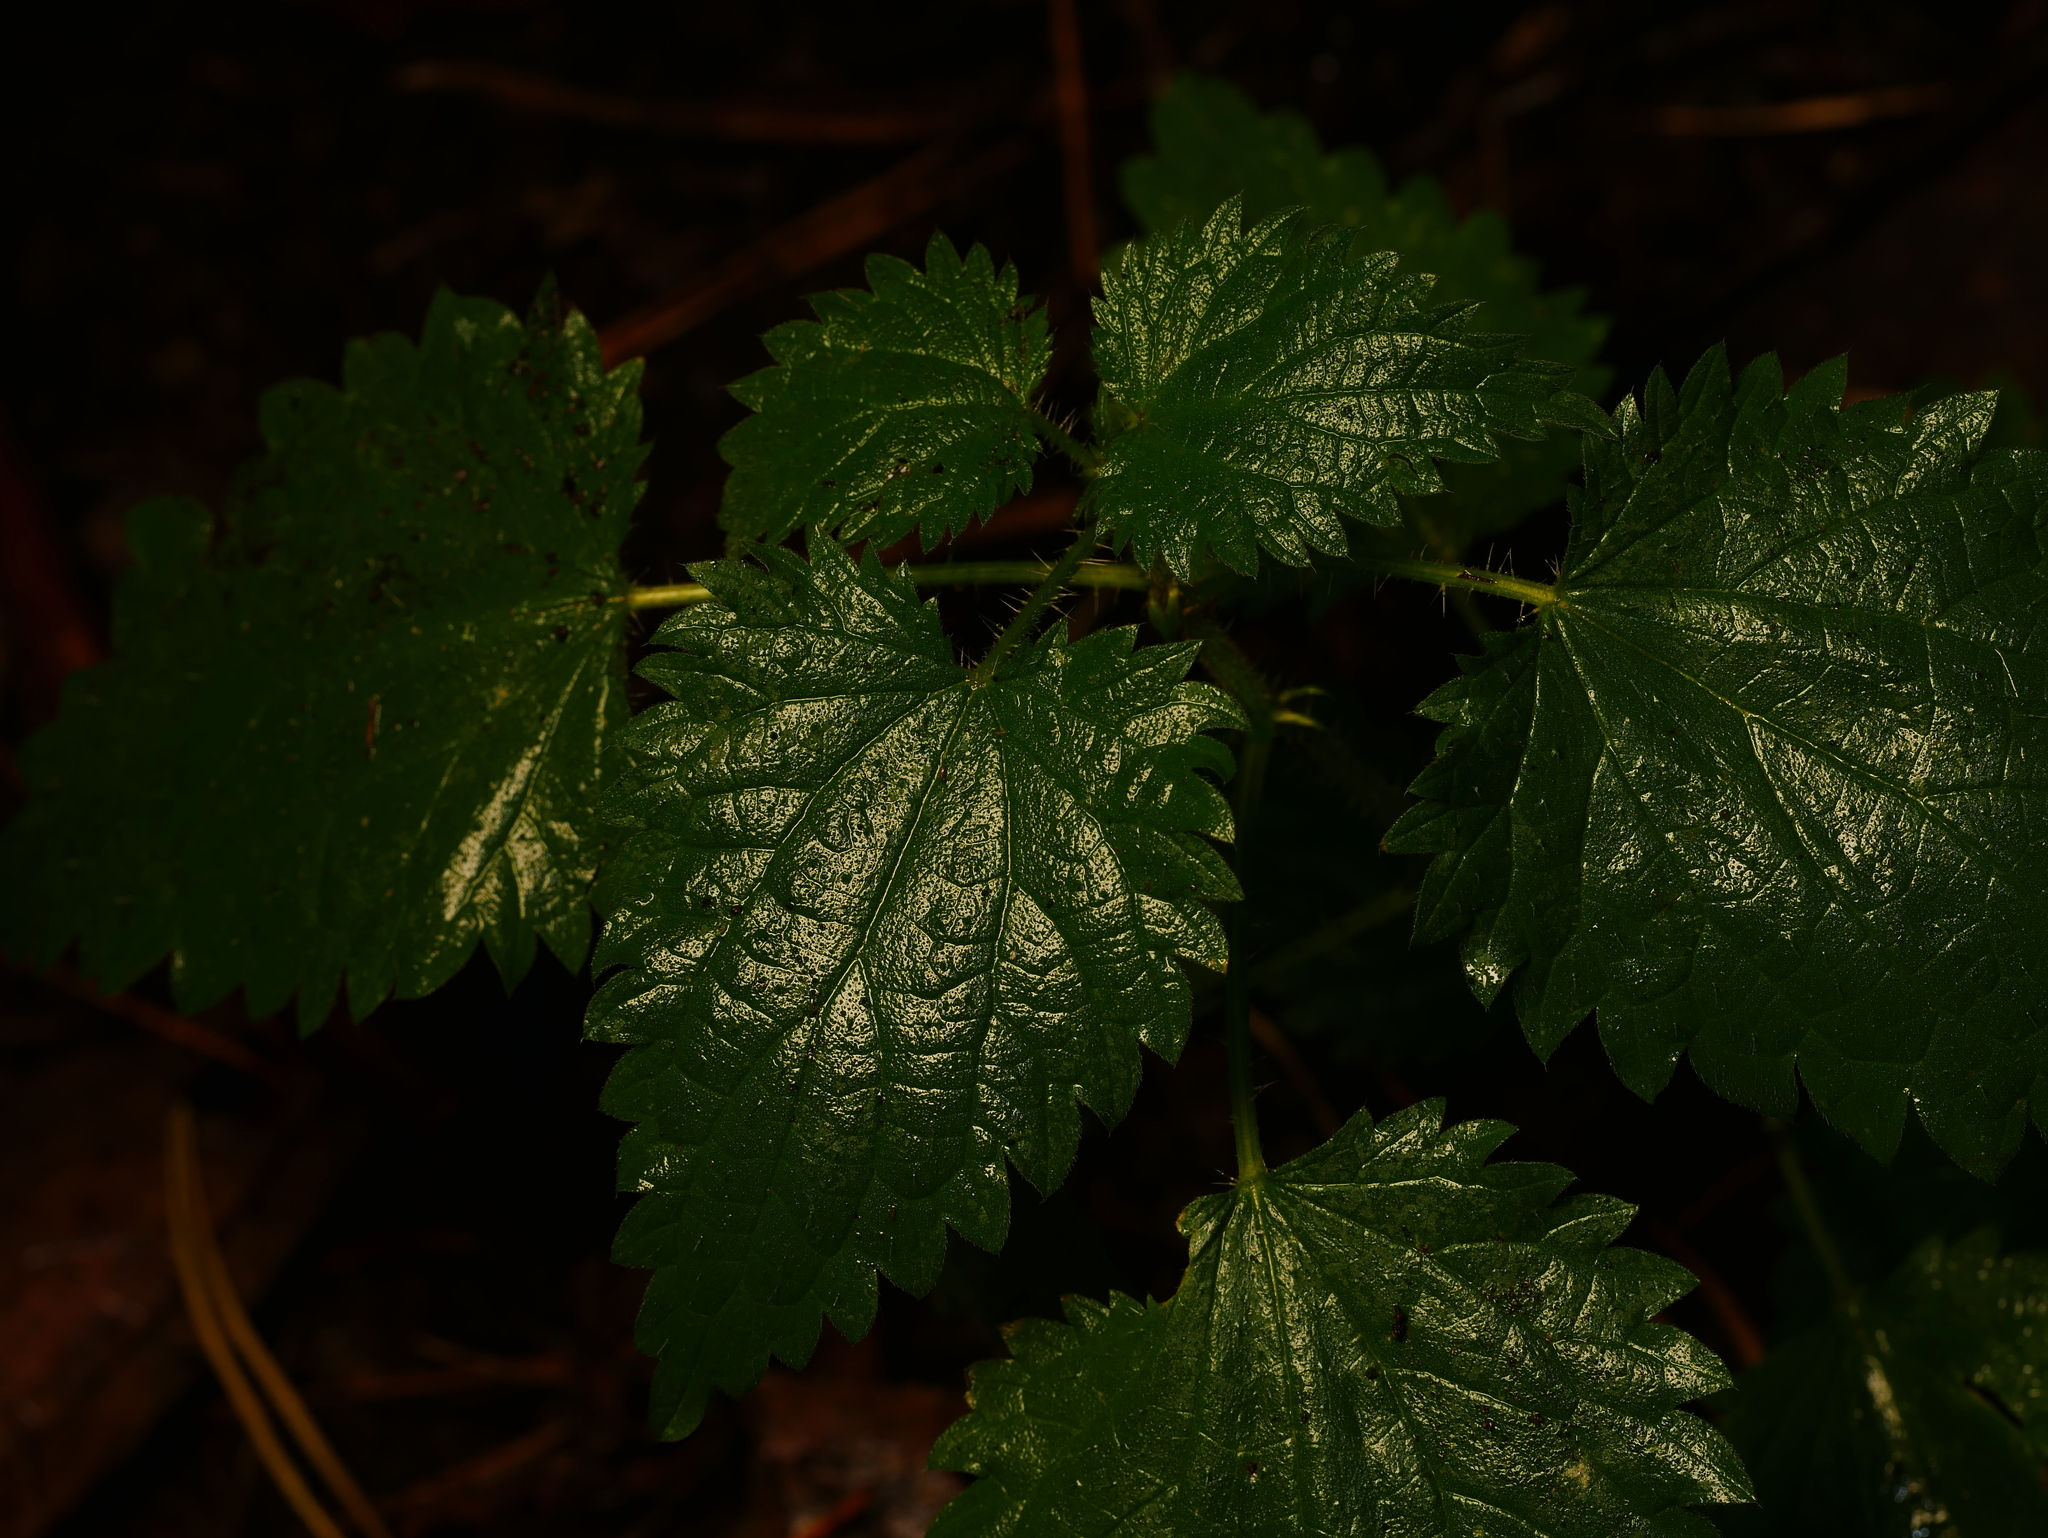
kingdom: Plantae
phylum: Tracheophyta
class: Magnoliopsida
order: Rosales
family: Urticaceae
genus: Urtica
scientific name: Urtica dioica
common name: Common nettle
